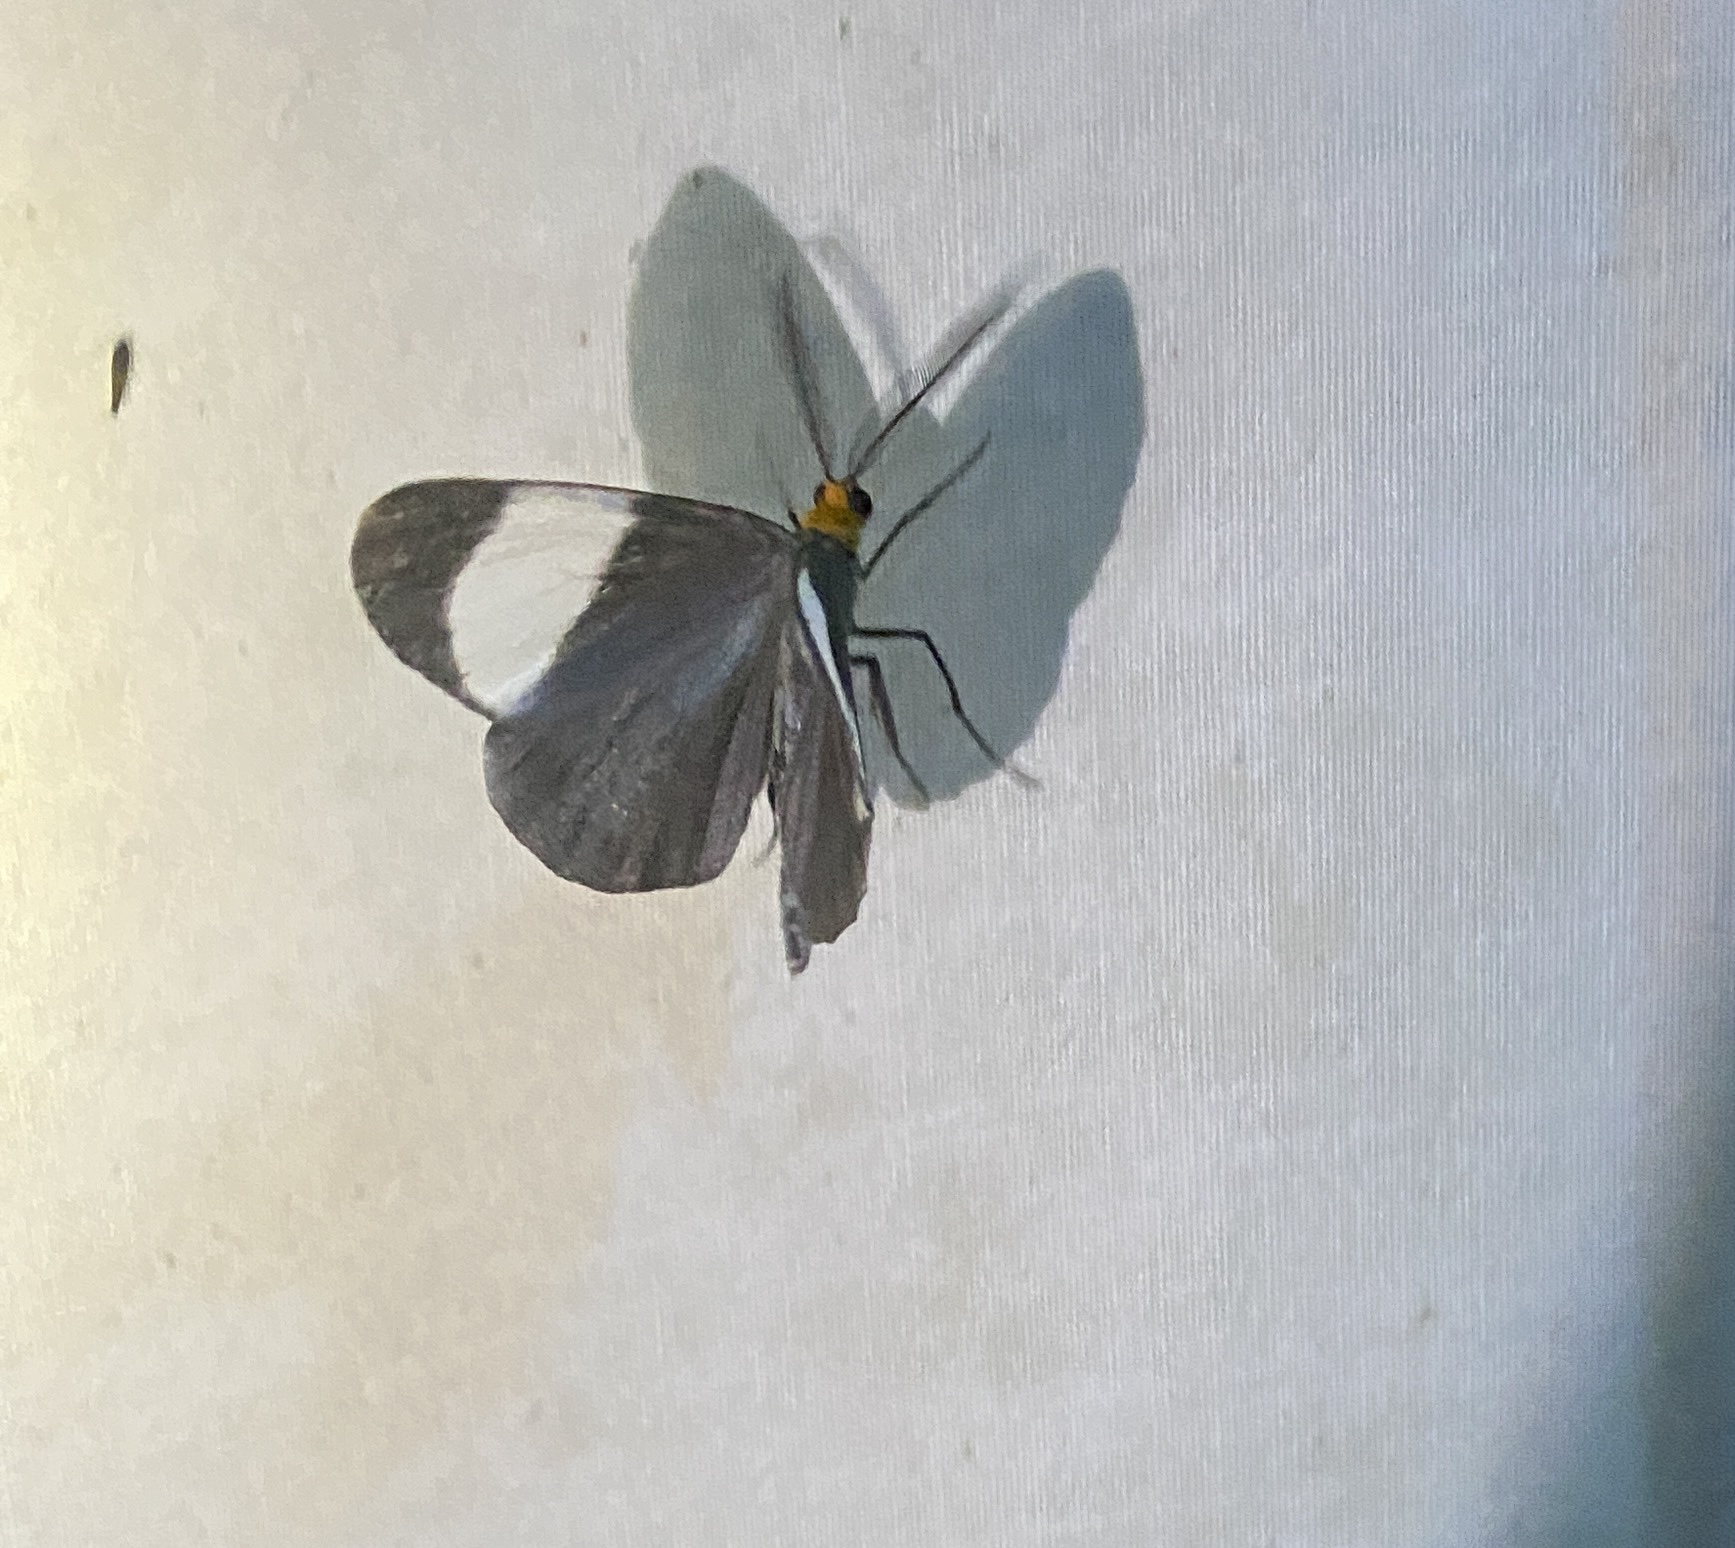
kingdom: Animalia
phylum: Arthropoda
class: Insecta
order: Lepidoptera
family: Geometridae
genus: Simena
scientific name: Simena luctifera
